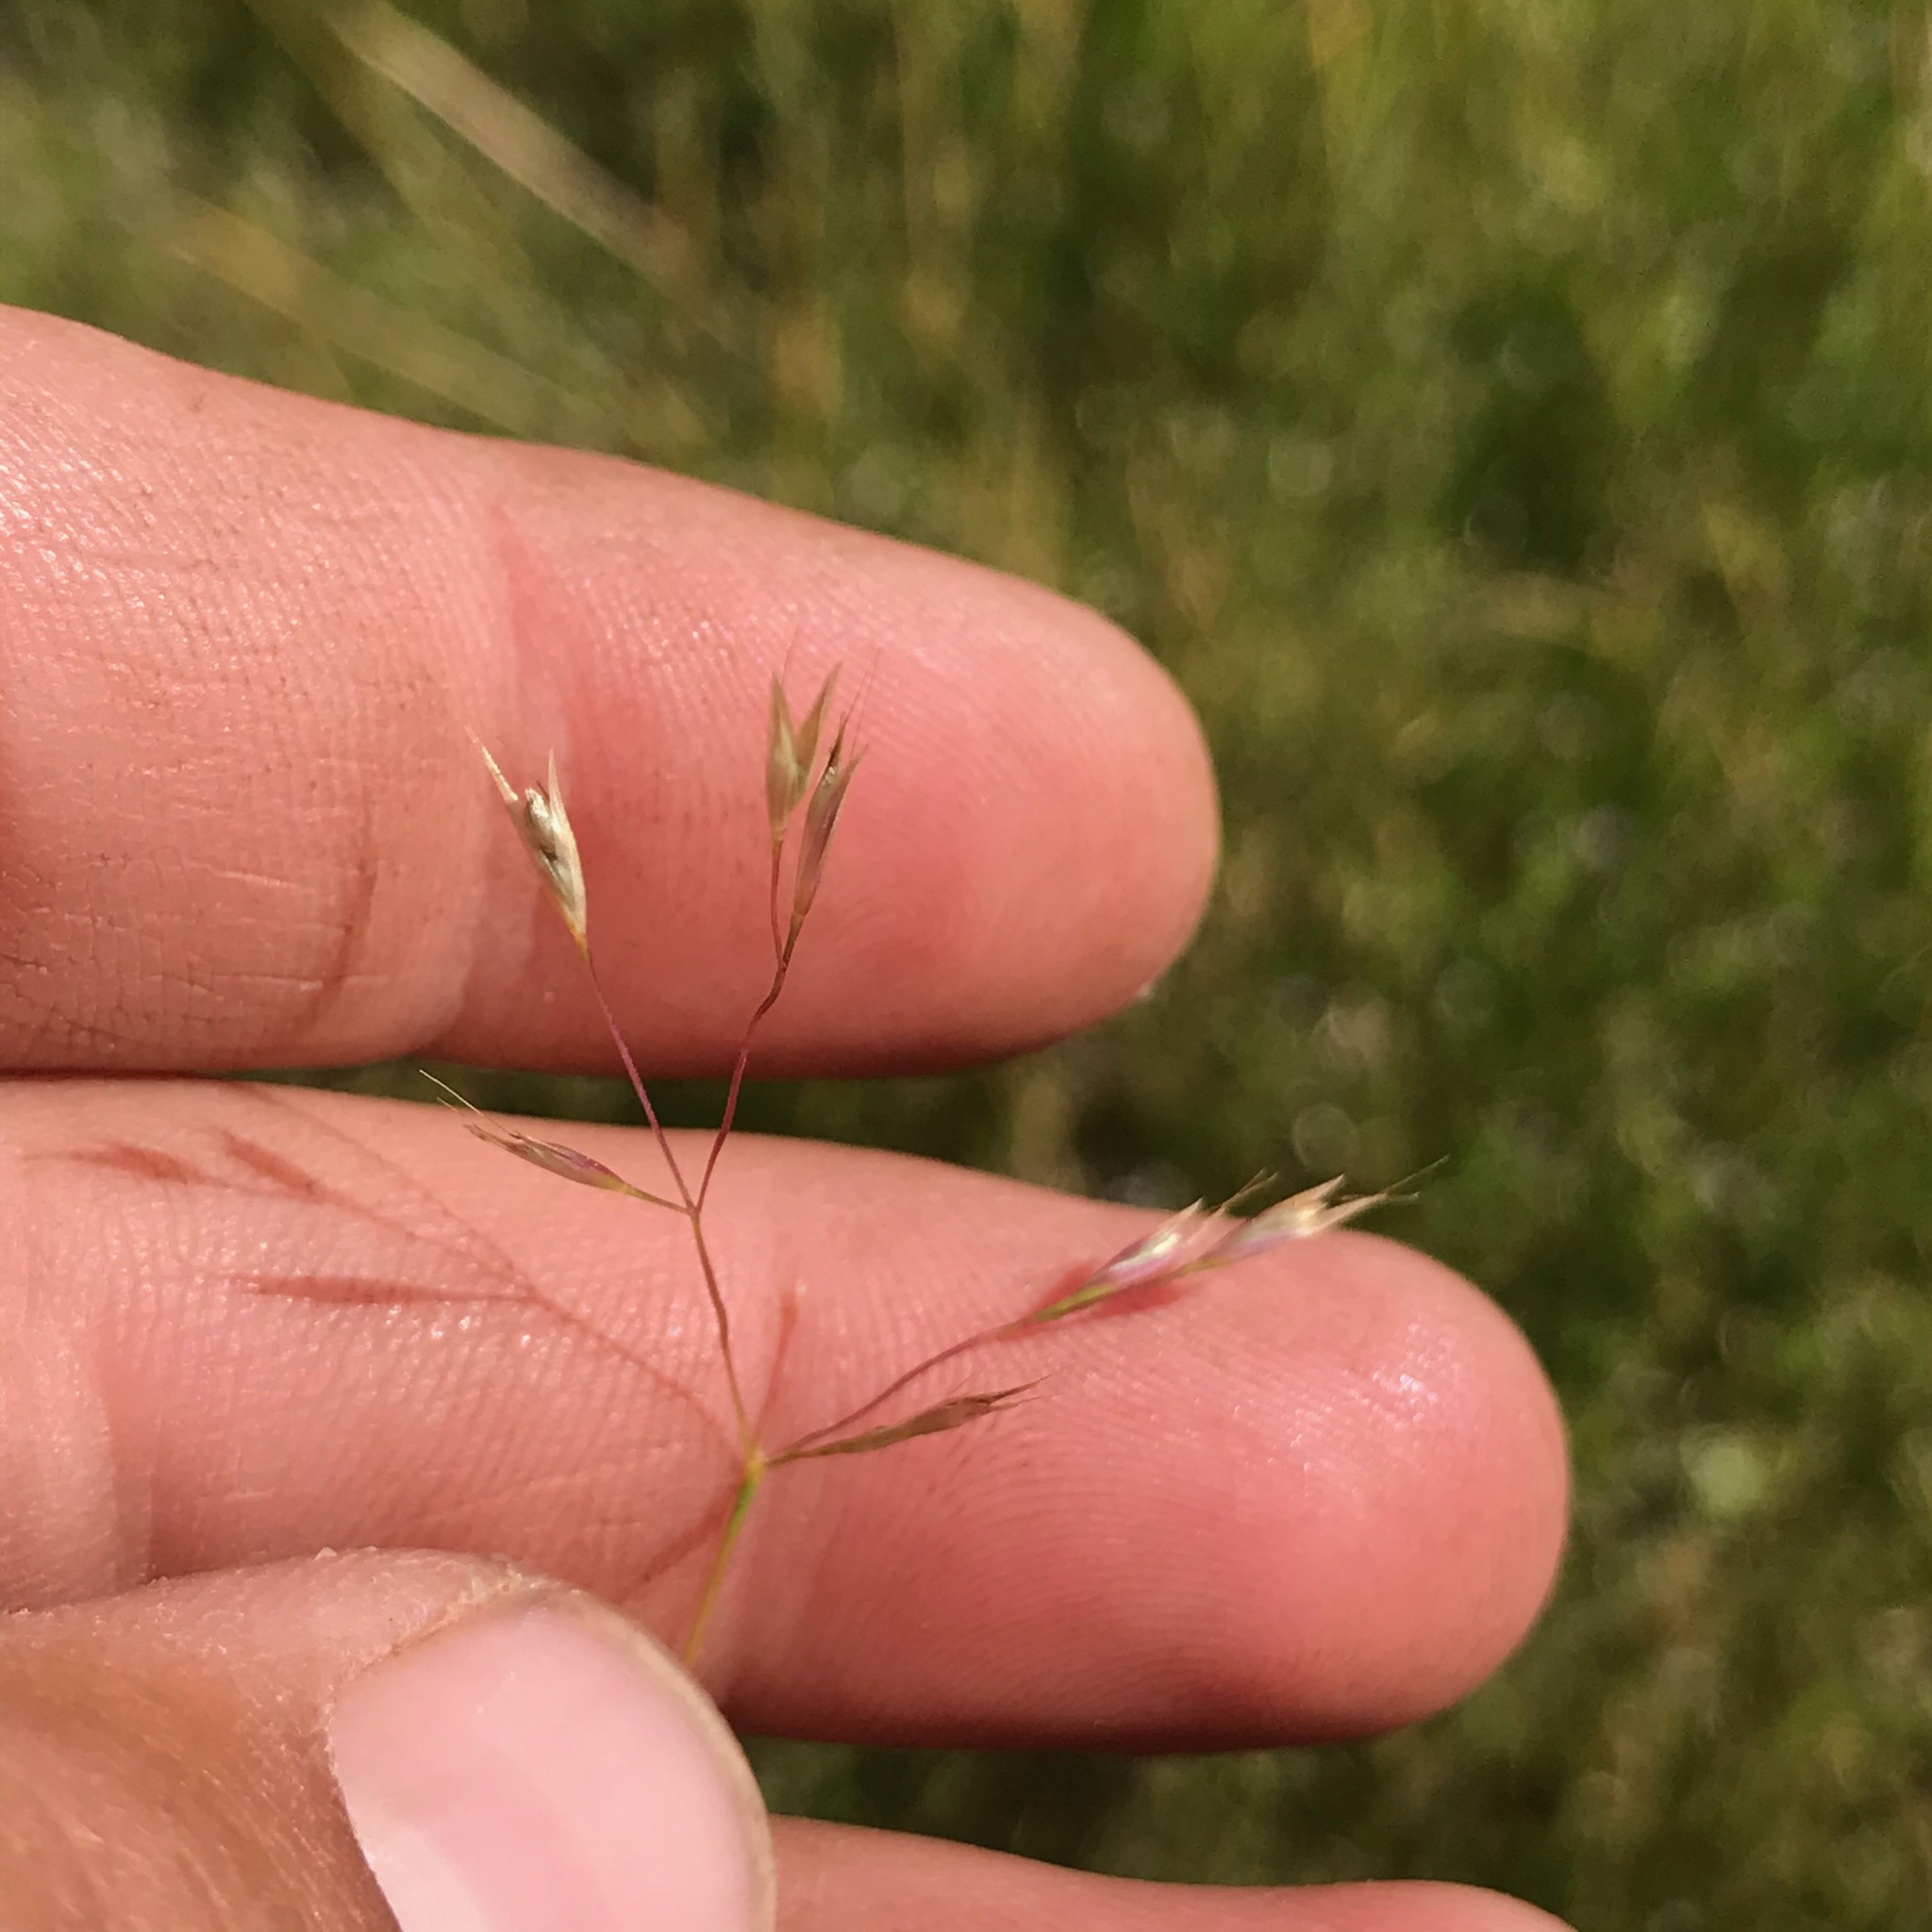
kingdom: Plantae
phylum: Tracheophyta
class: Liliopsida
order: Poales
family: Poaceae
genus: Deschampsia
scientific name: Deschampsia danthonioides
